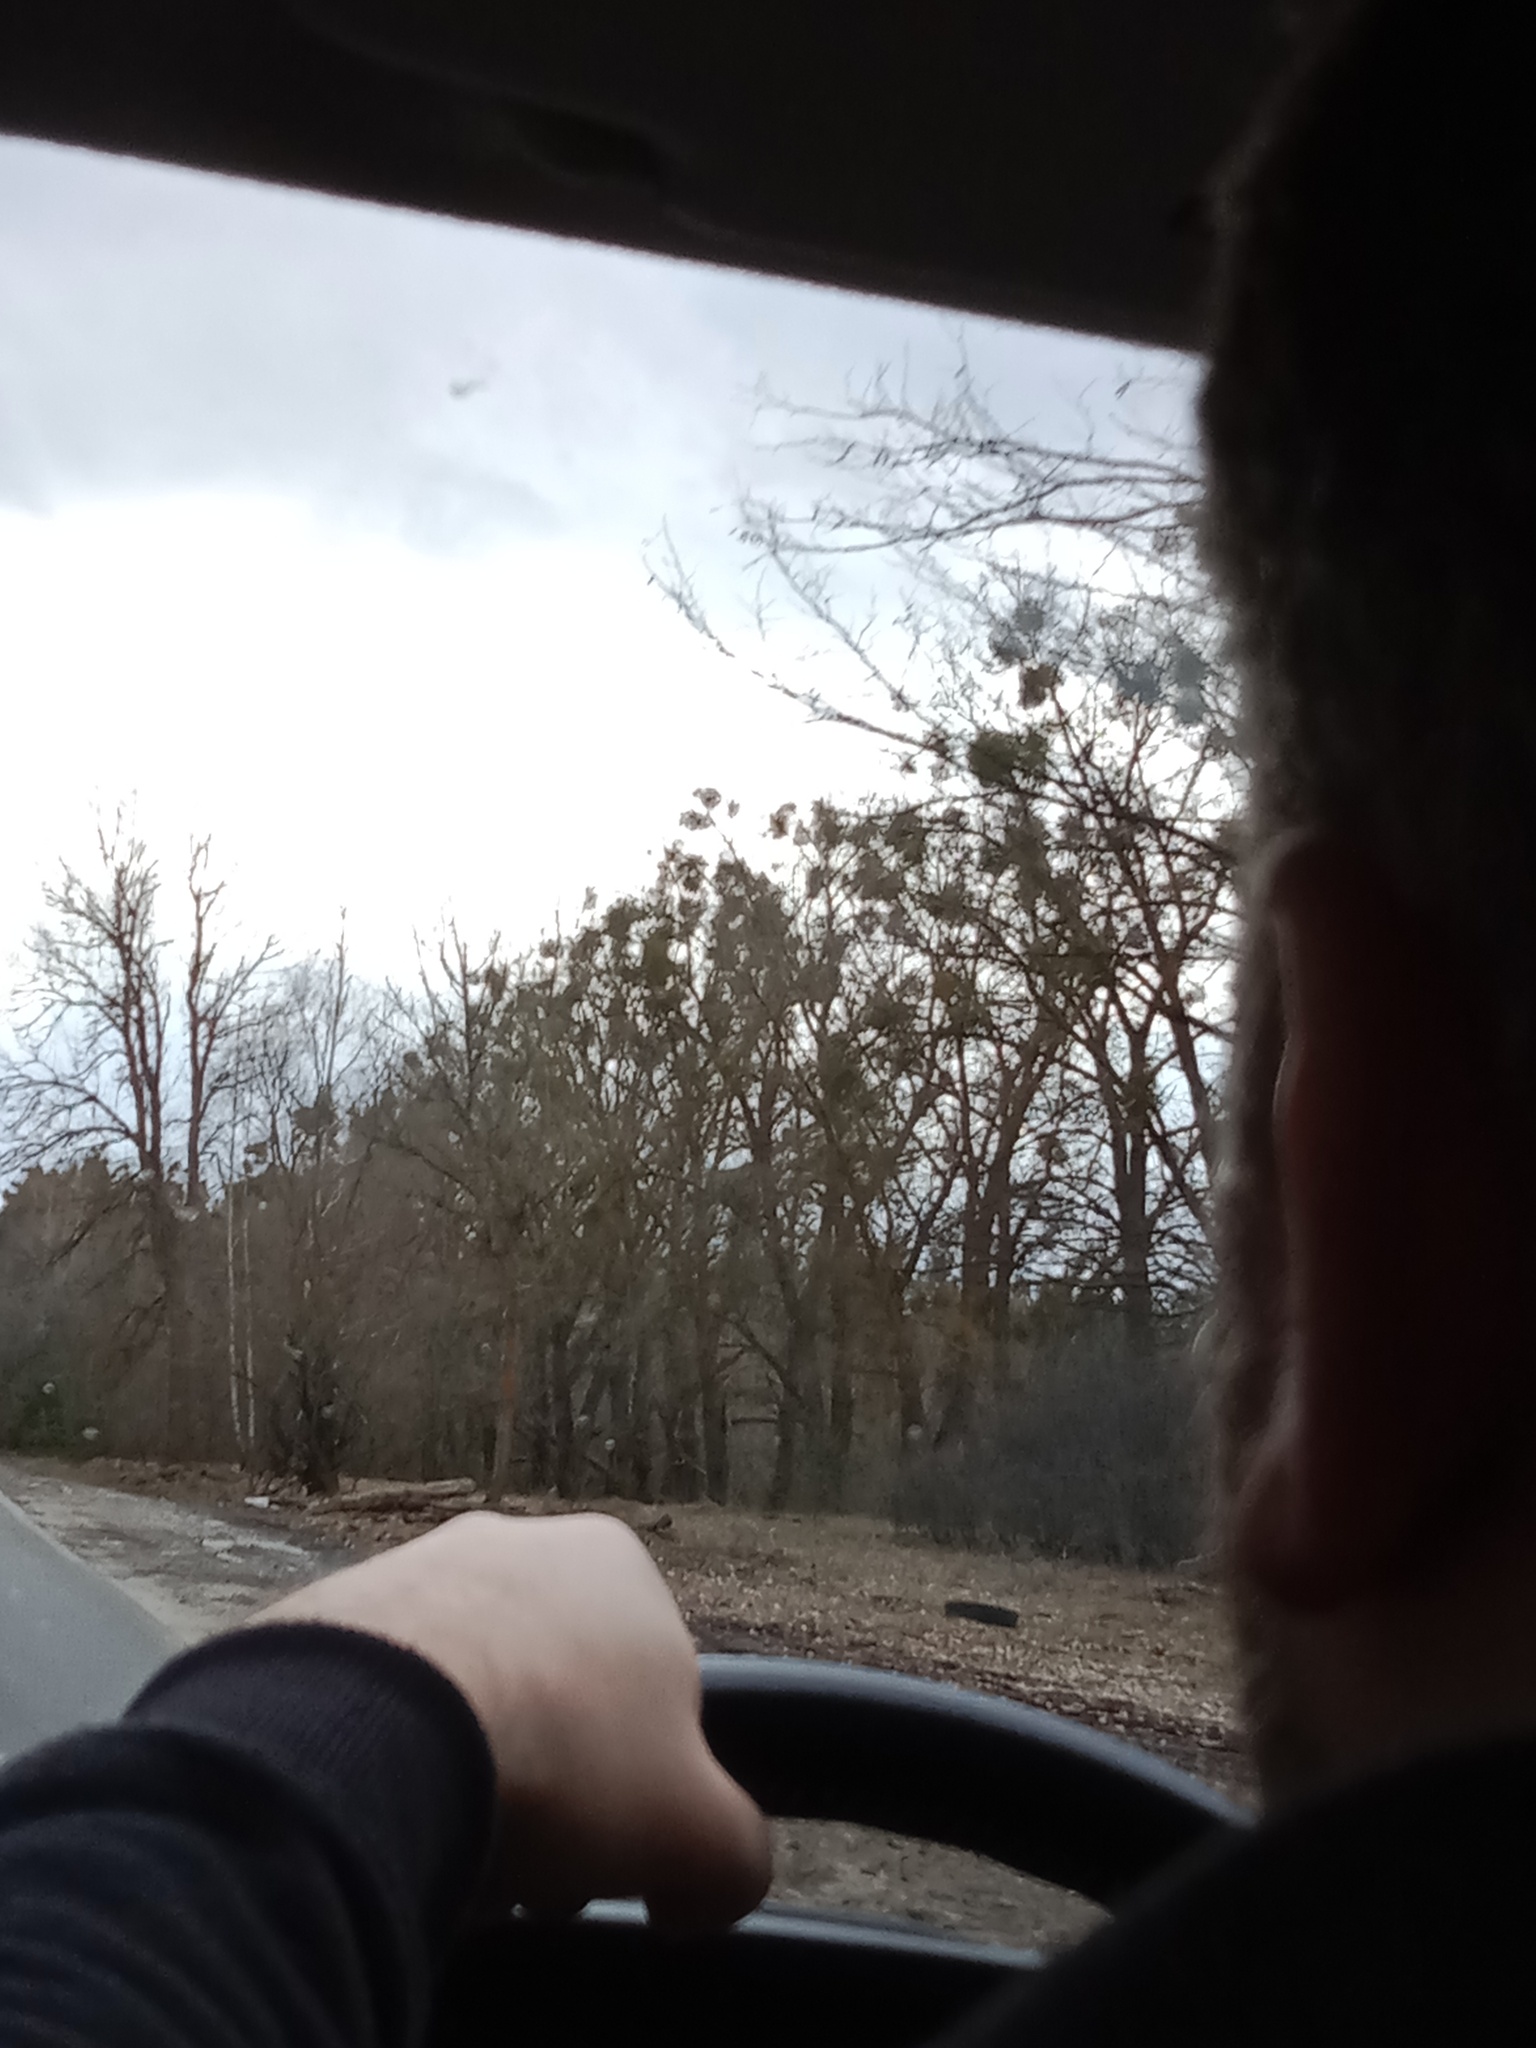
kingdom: Plantae
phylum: Tracheophyta
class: Magnoliopsida
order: Santalales
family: Viscaceae
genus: Viscum
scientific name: Viscum album
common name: Mistletoe
